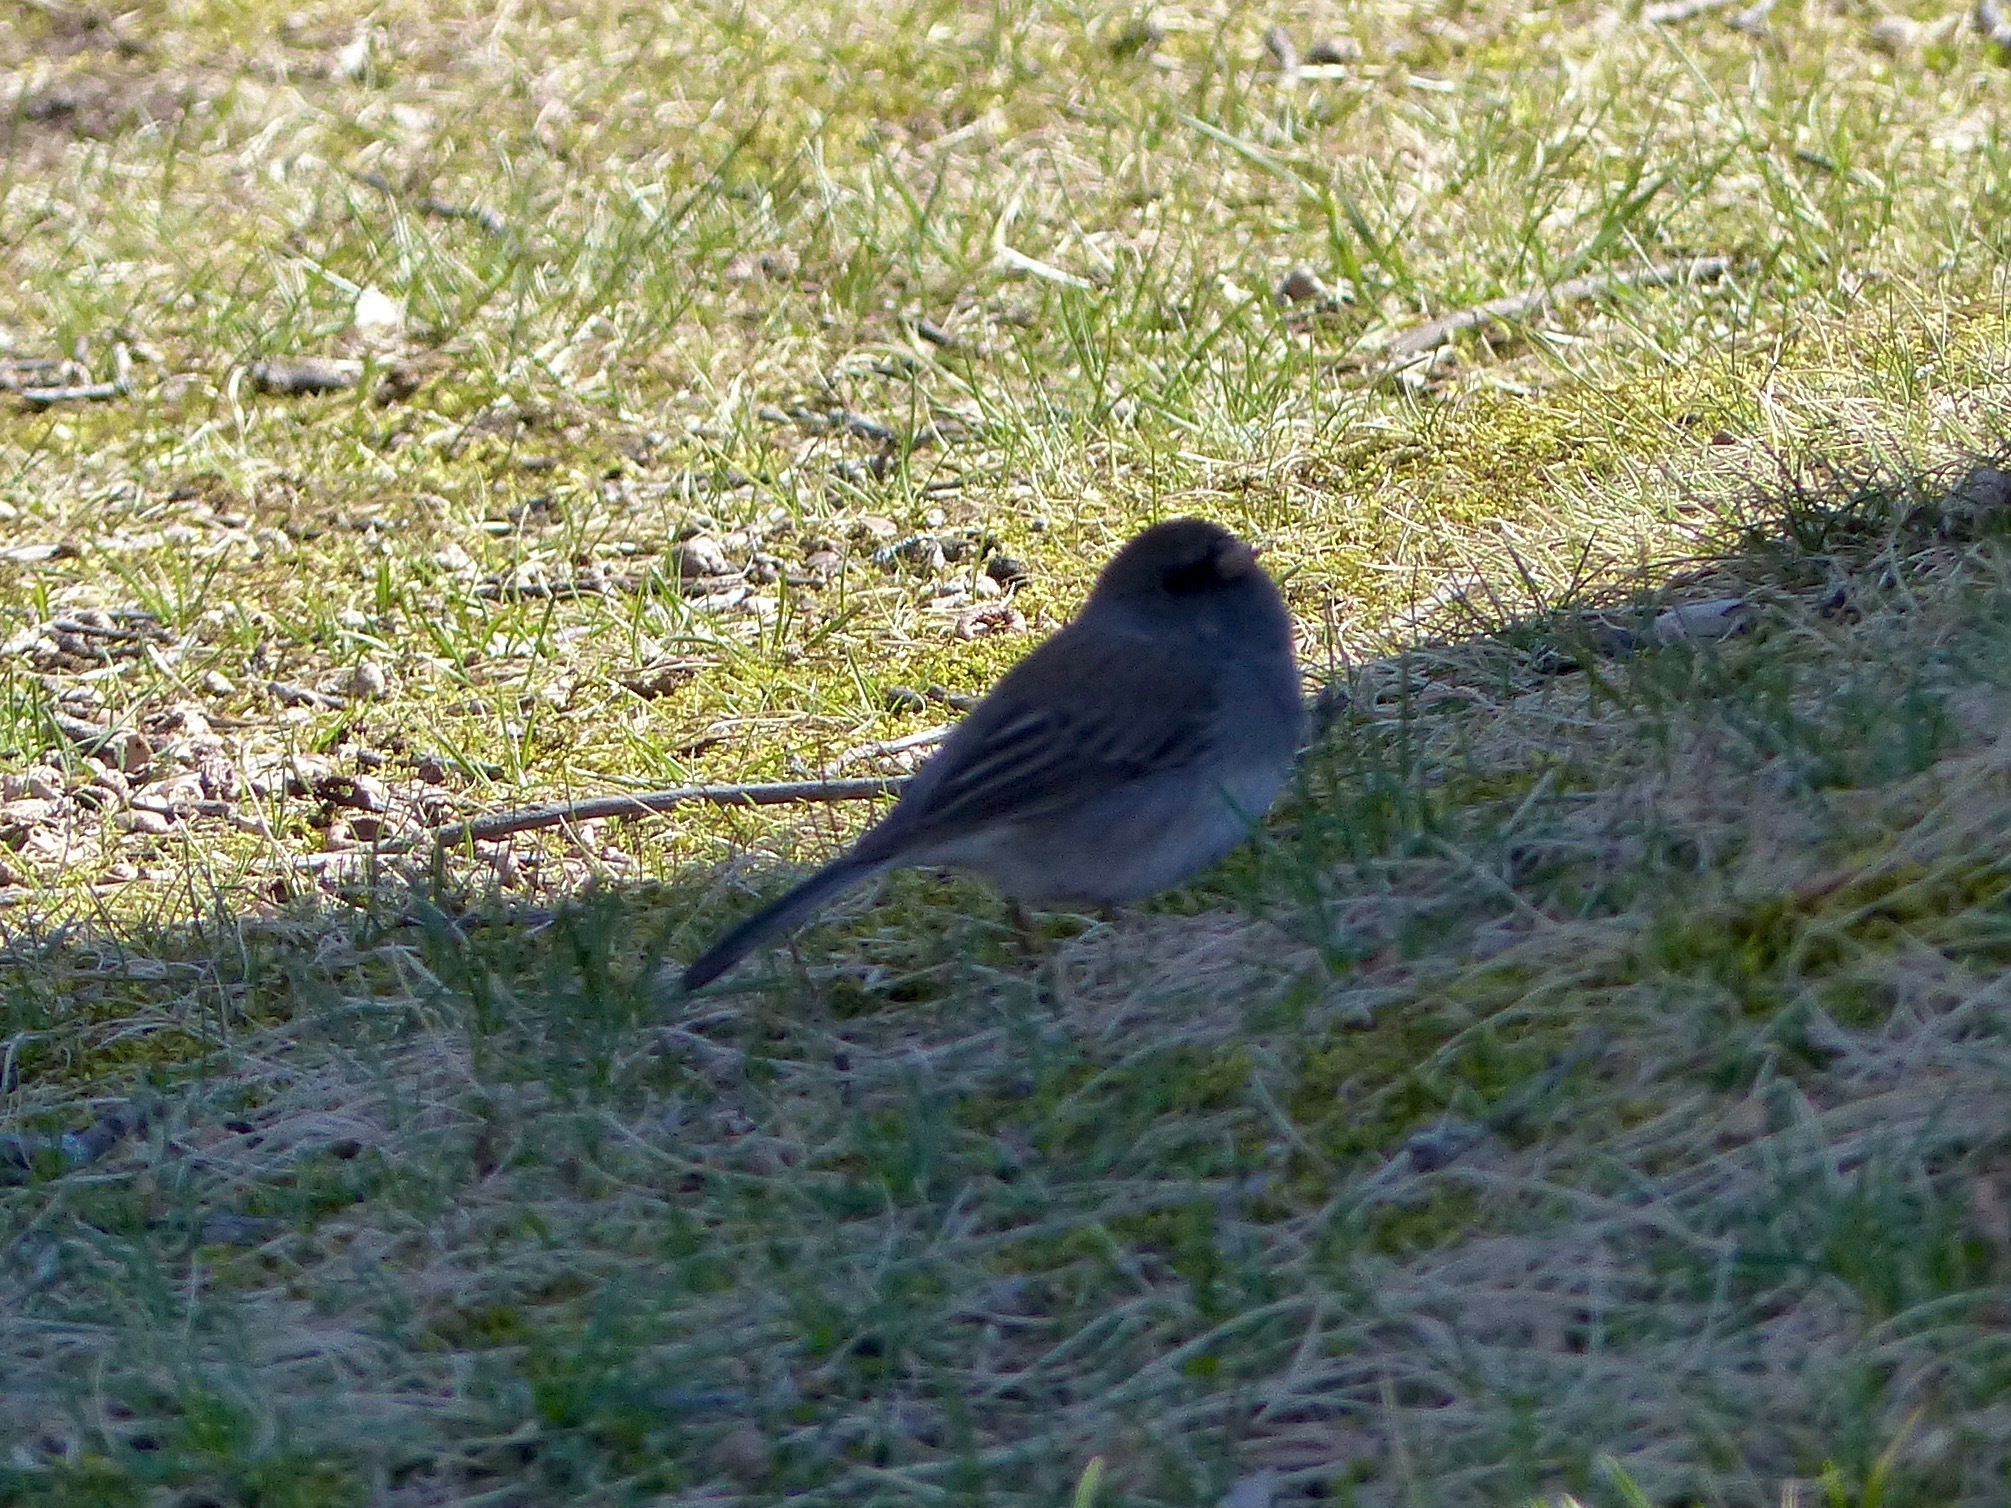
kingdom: Animalia
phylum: Chordata
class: Aves
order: Passeriformes
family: Passerellidae
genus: Junco
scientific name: Junco hyemalis
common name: Dark-eyed junco
